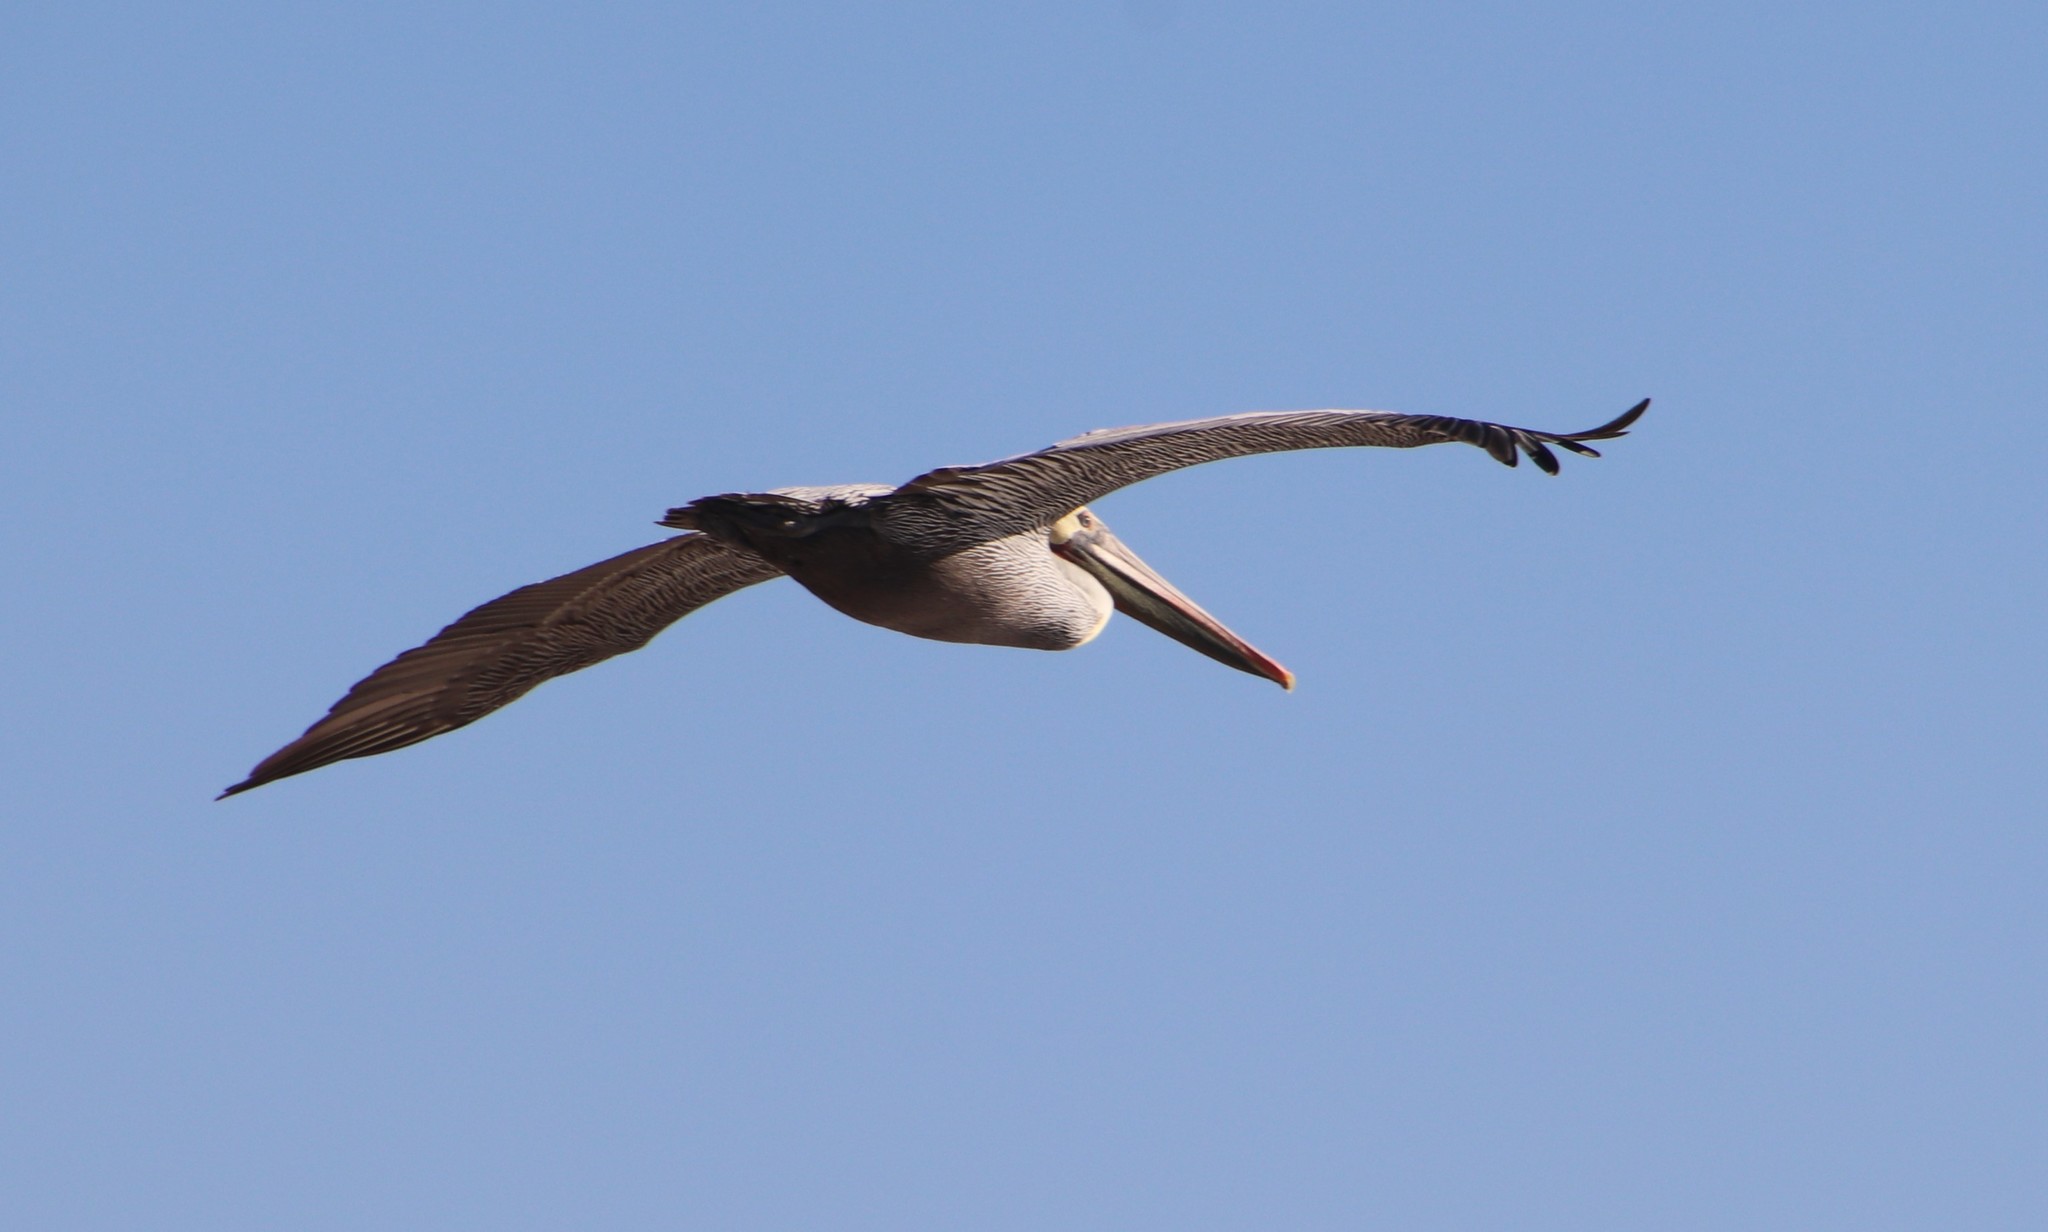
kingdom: Animalia
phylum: Chordata
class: Aves
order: Pelecaniformes
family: Pelecanidae
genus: Pelecanus
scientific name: Pelecanus occidentalis
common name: Brown pelican
